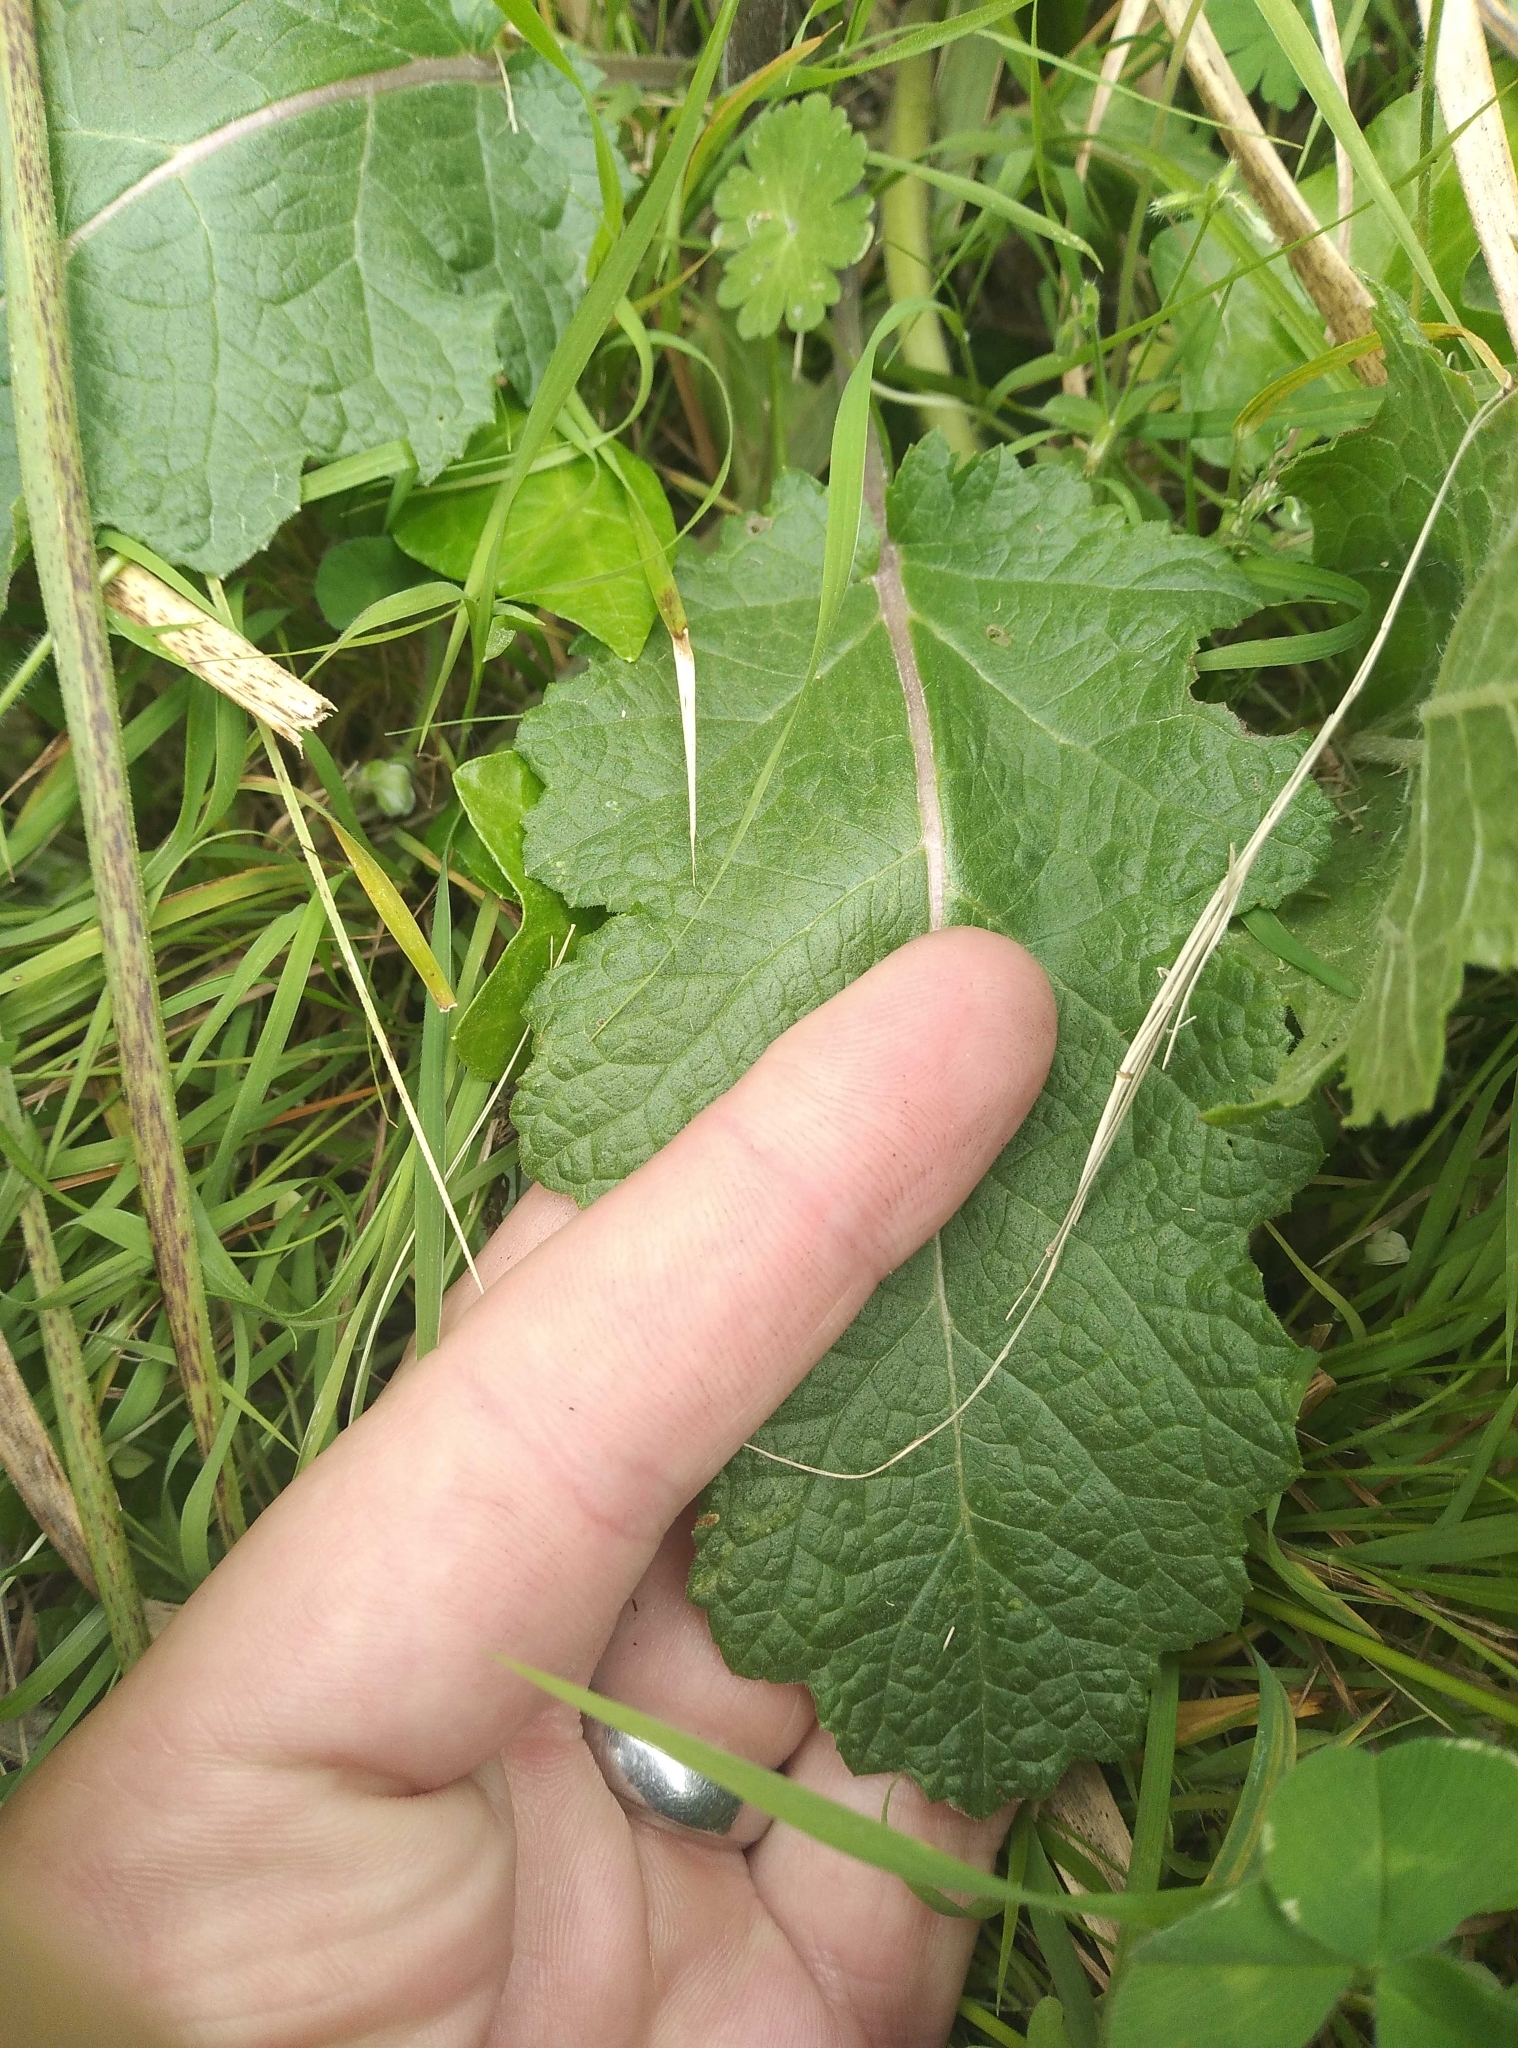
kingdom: Plantae
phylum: Tracheophyta
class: Magnoliopsida
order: Lamiales
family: Lamiaceae
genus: Salvia
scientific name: Salvia verbenaca
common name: Wild clary
